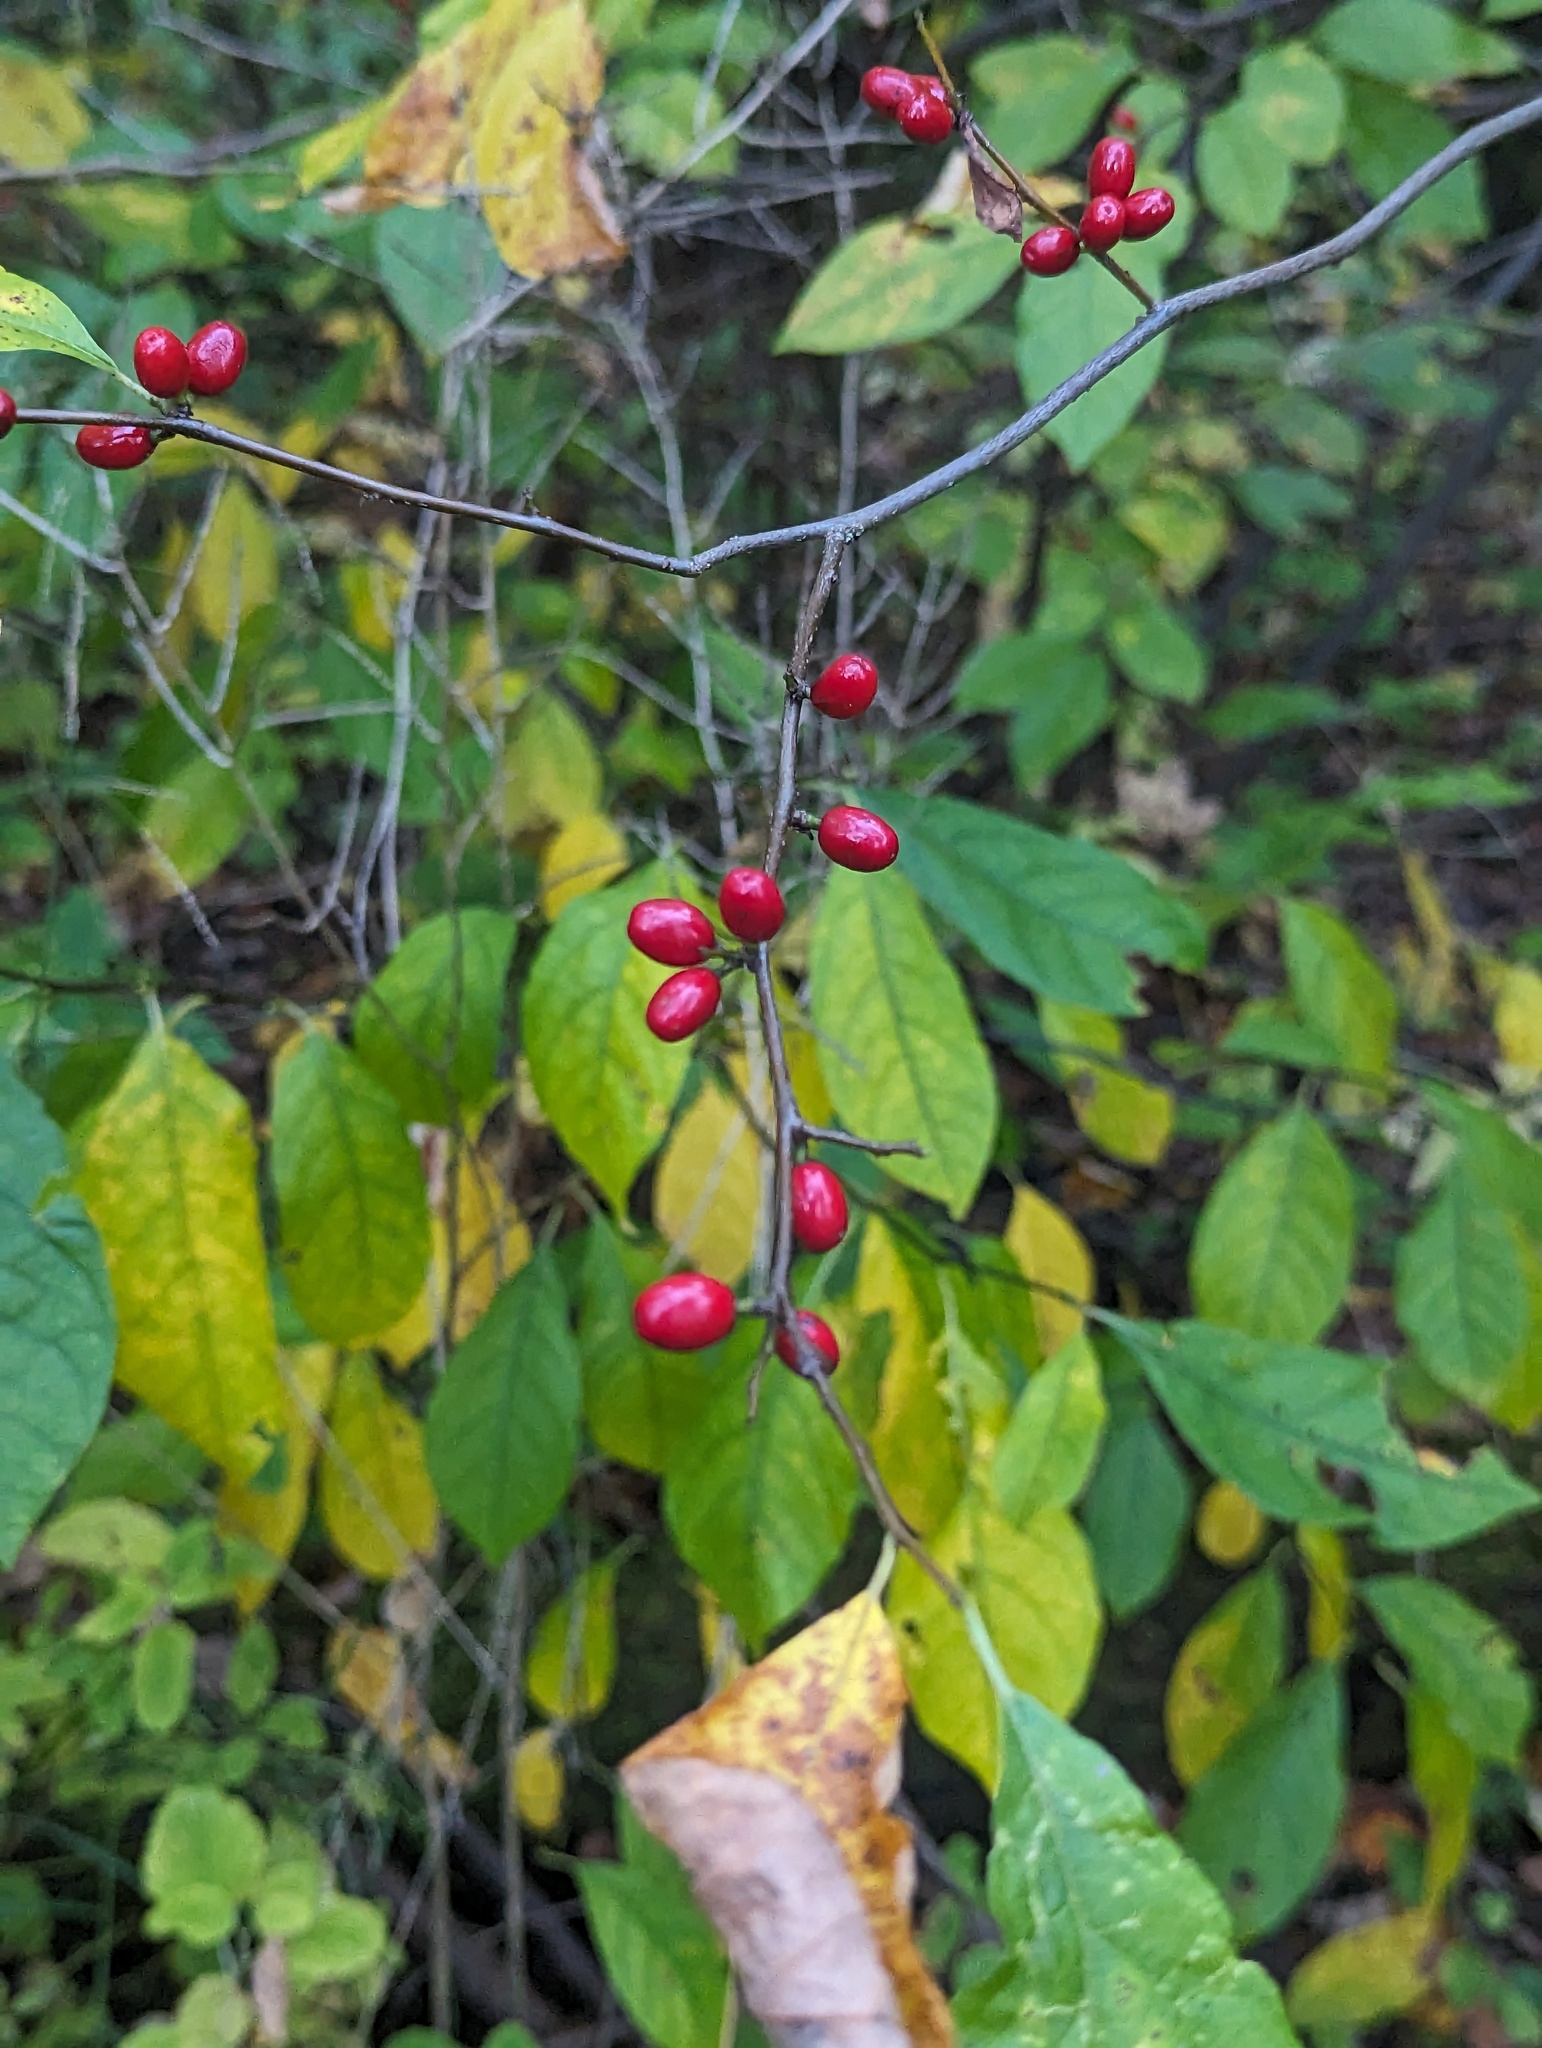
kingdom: Plantae
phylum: Tracheophyta
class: Magnoliopsida
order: Laurales
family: Lauraceae
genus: Lindera
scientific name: Lindera benzoin
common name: Spicebush
